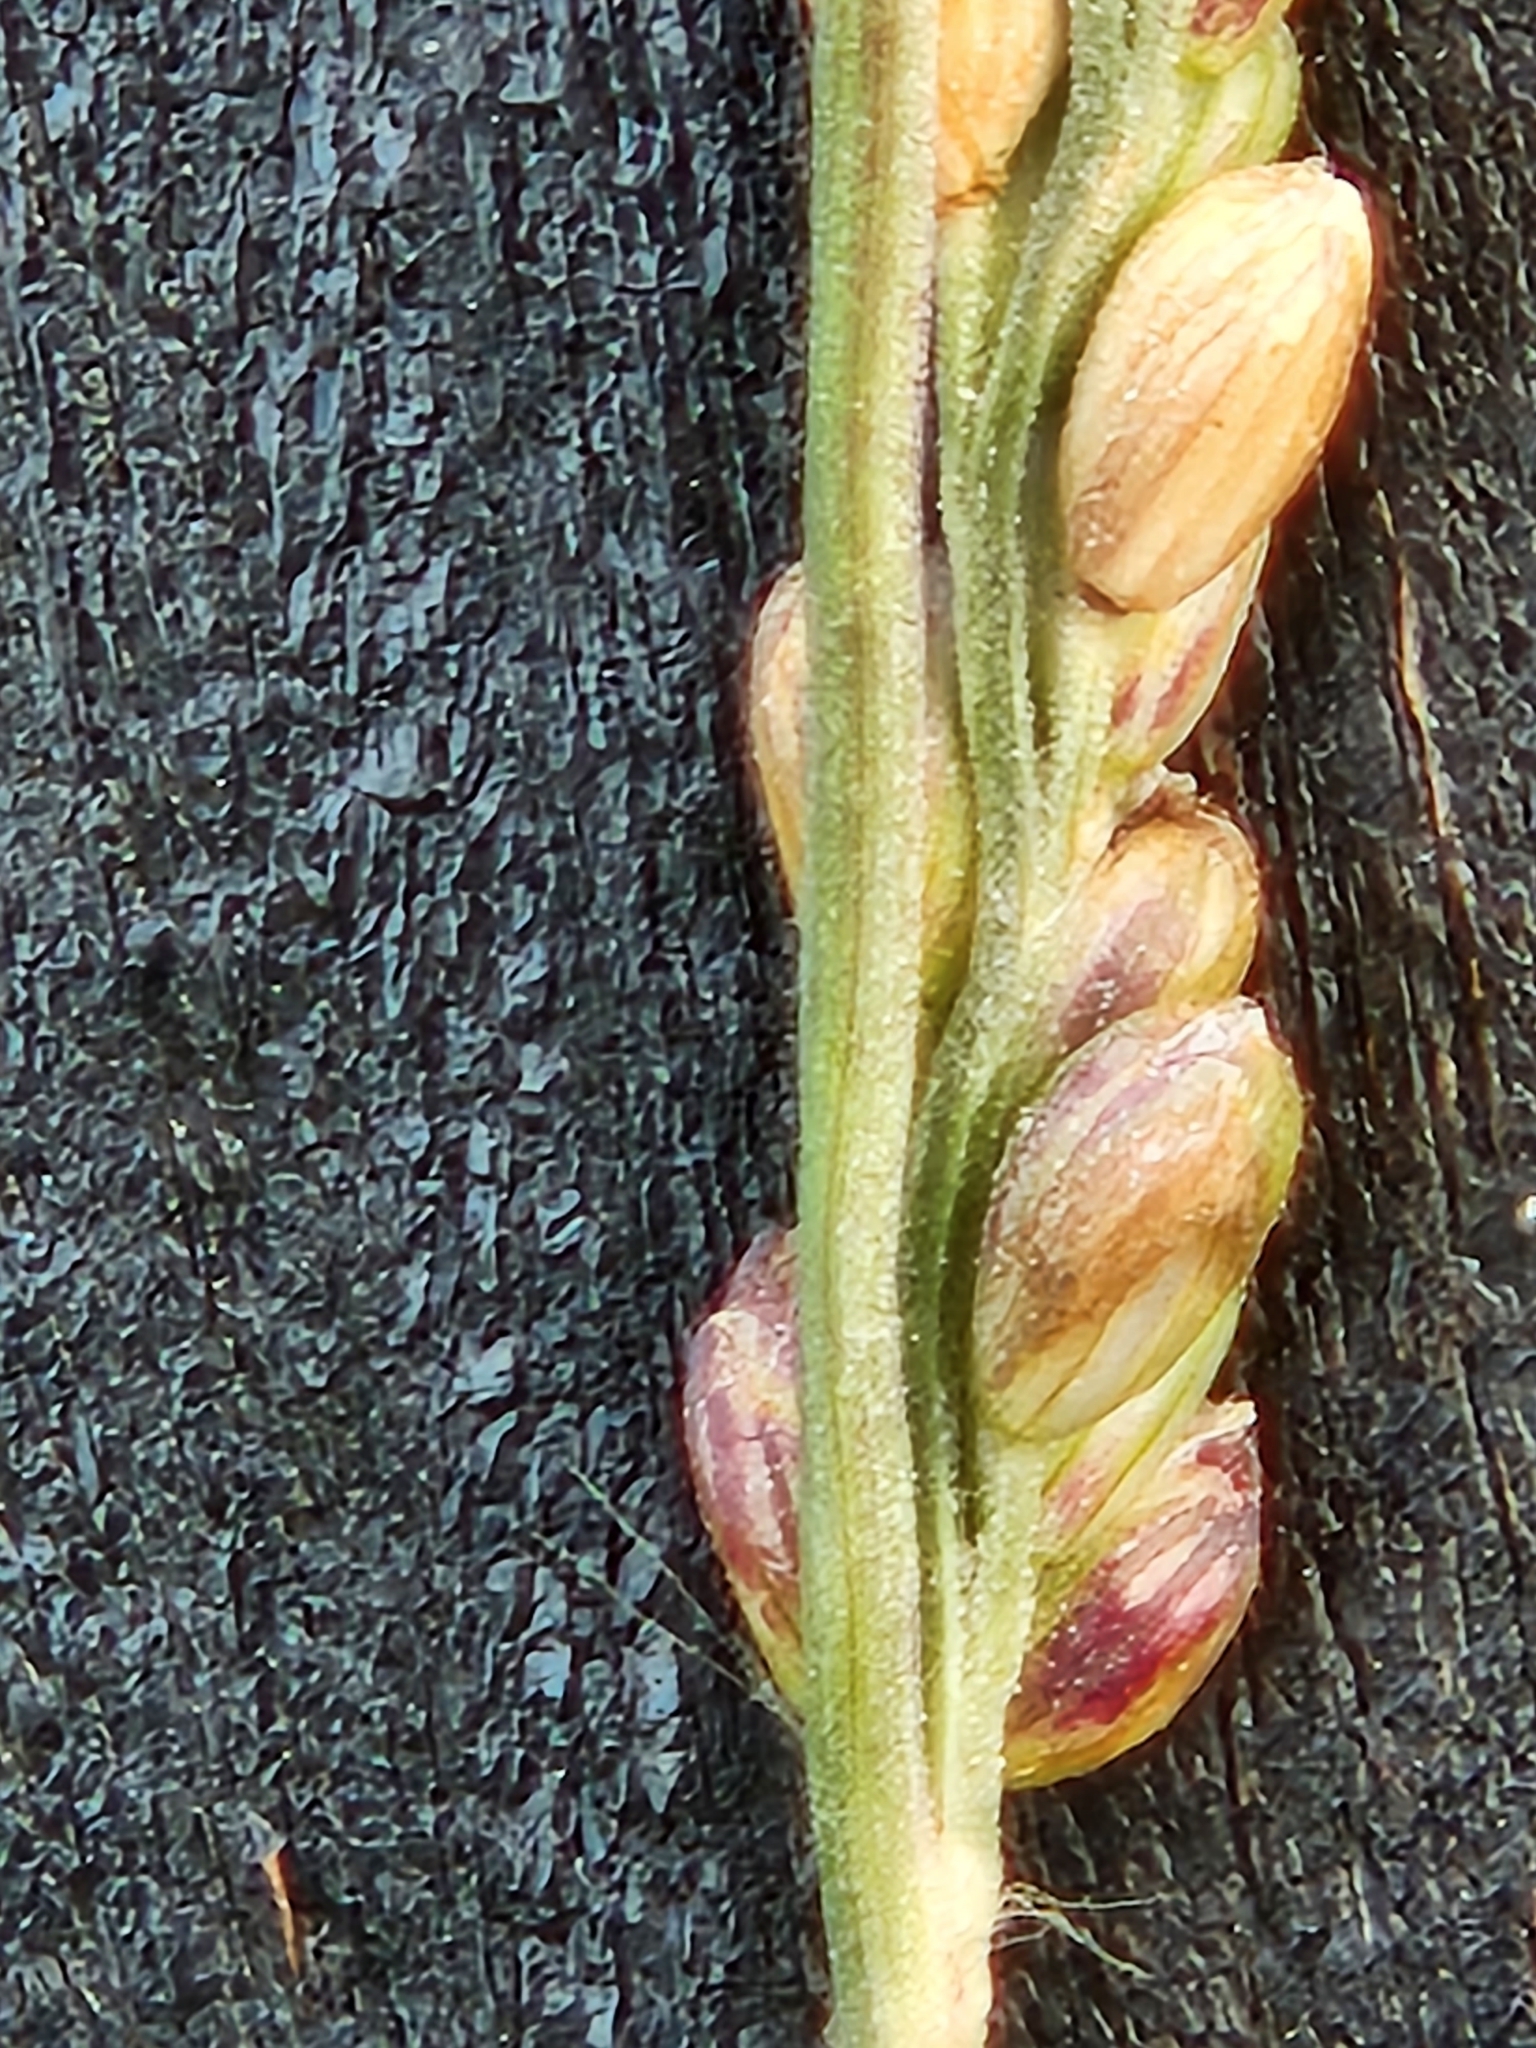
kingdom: Plantae
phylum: Tracheophyta
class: Liliopsida
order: Poales
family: Poaceae
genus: Hopia
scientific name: Hopia obtusa
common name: Vine-mesquite
